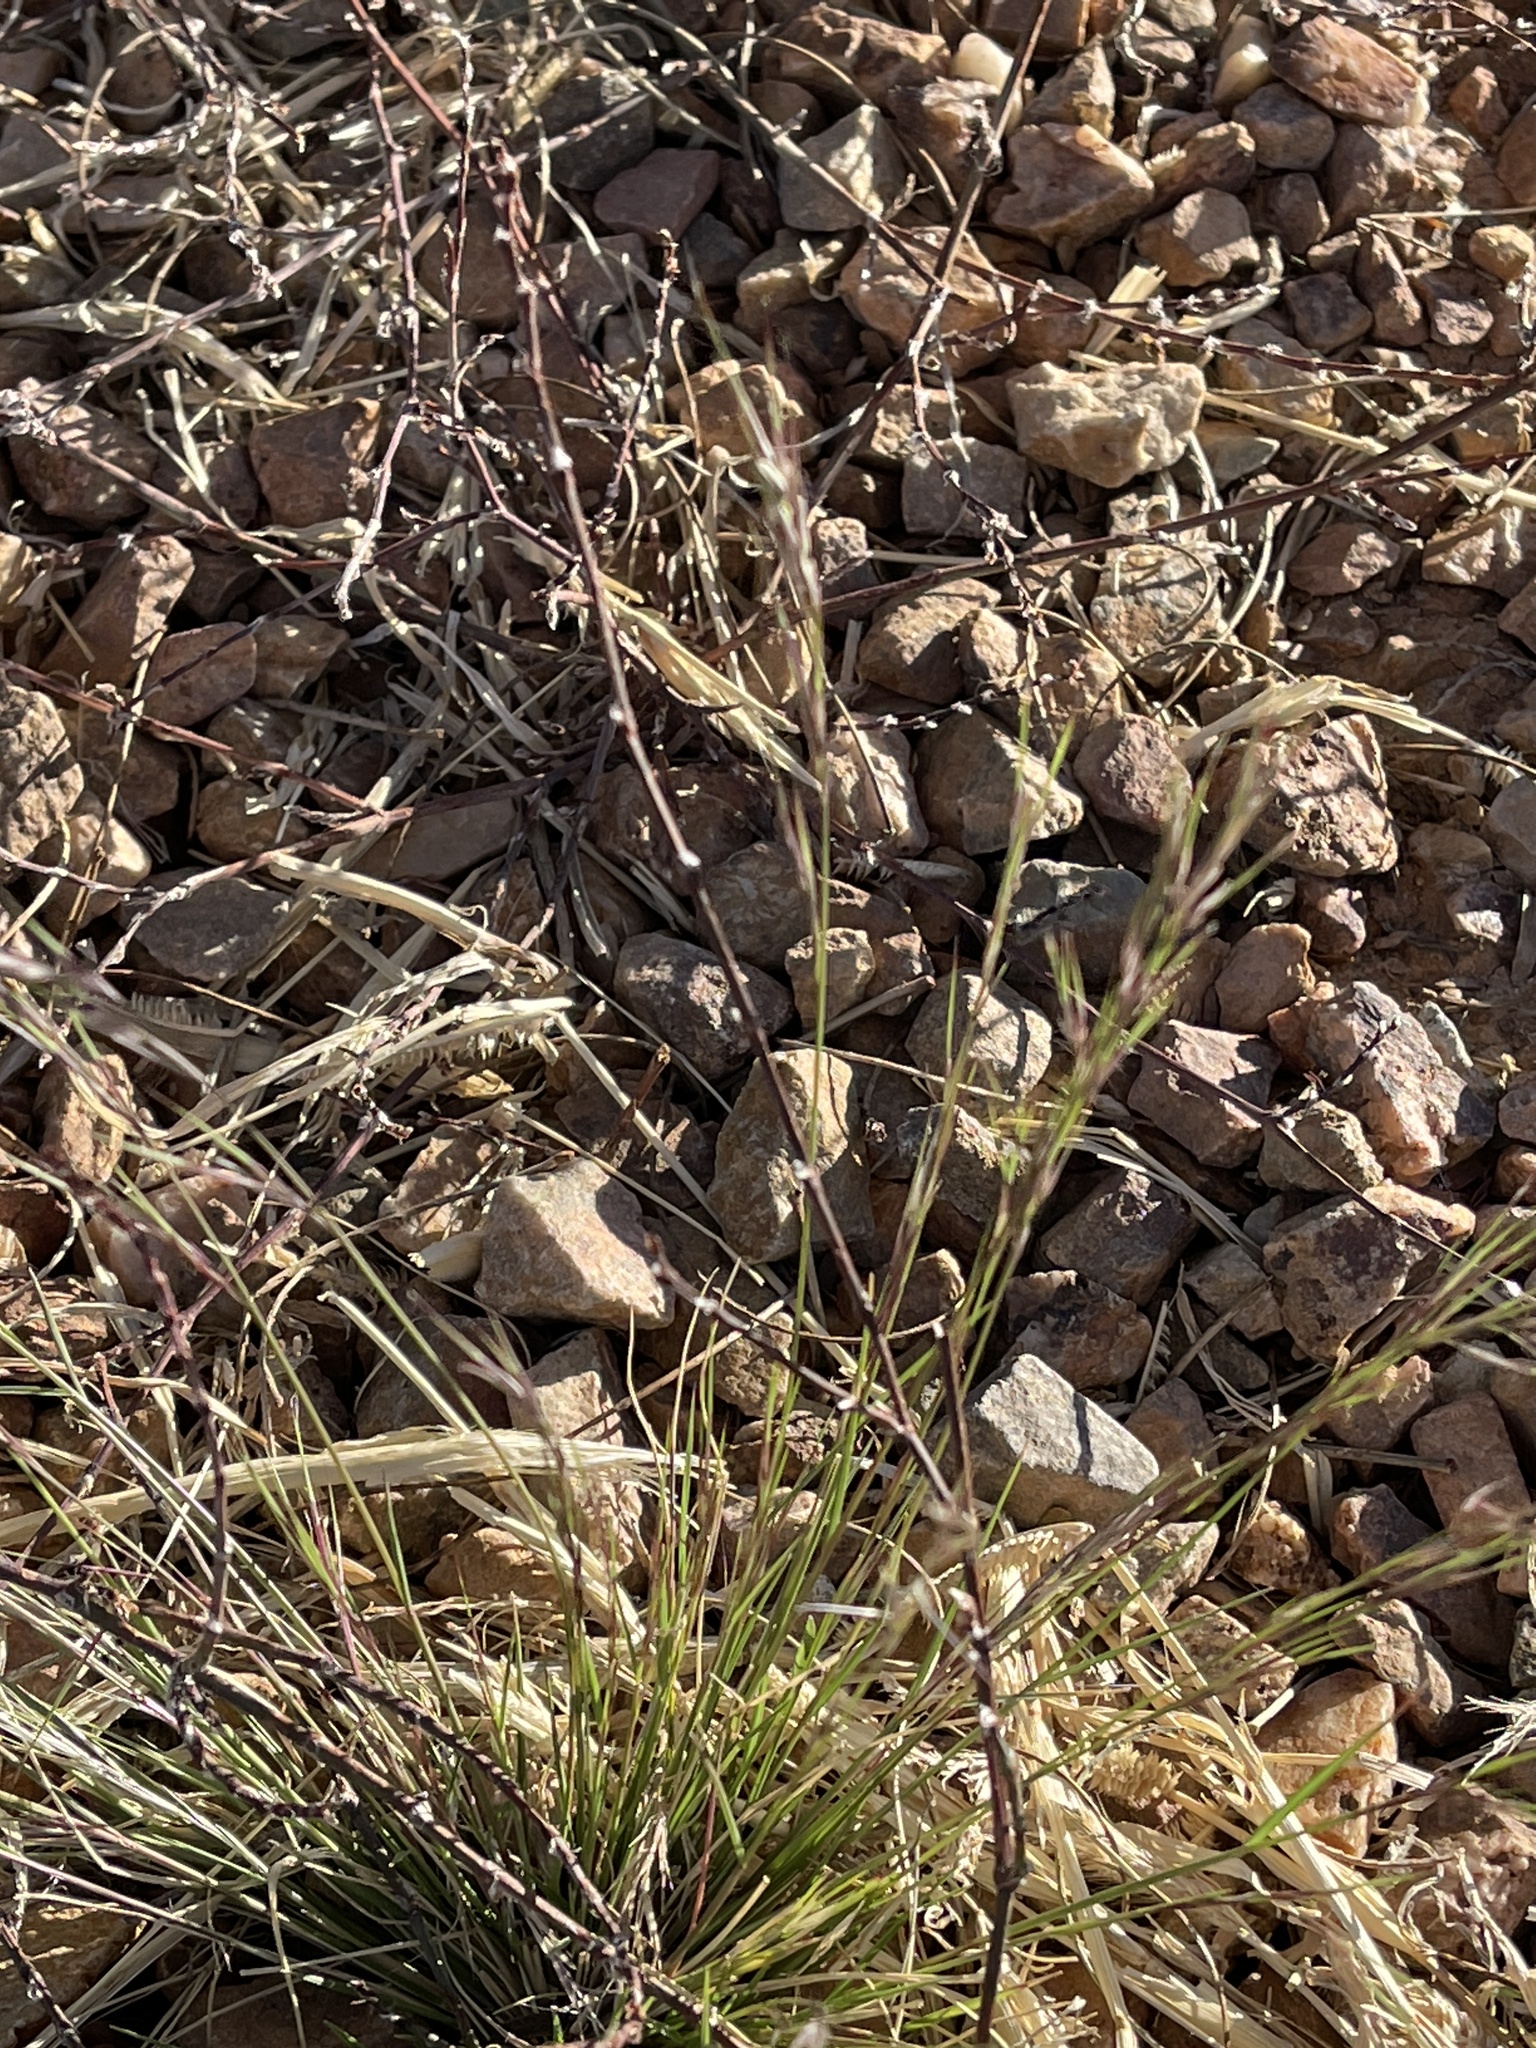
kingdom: Plantae
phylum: Tracheophyta
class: Liliopsida
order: Poales
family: Poaceae
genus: Aristida
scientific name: Aristida adscensionis
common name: Sixweeks threeawn
